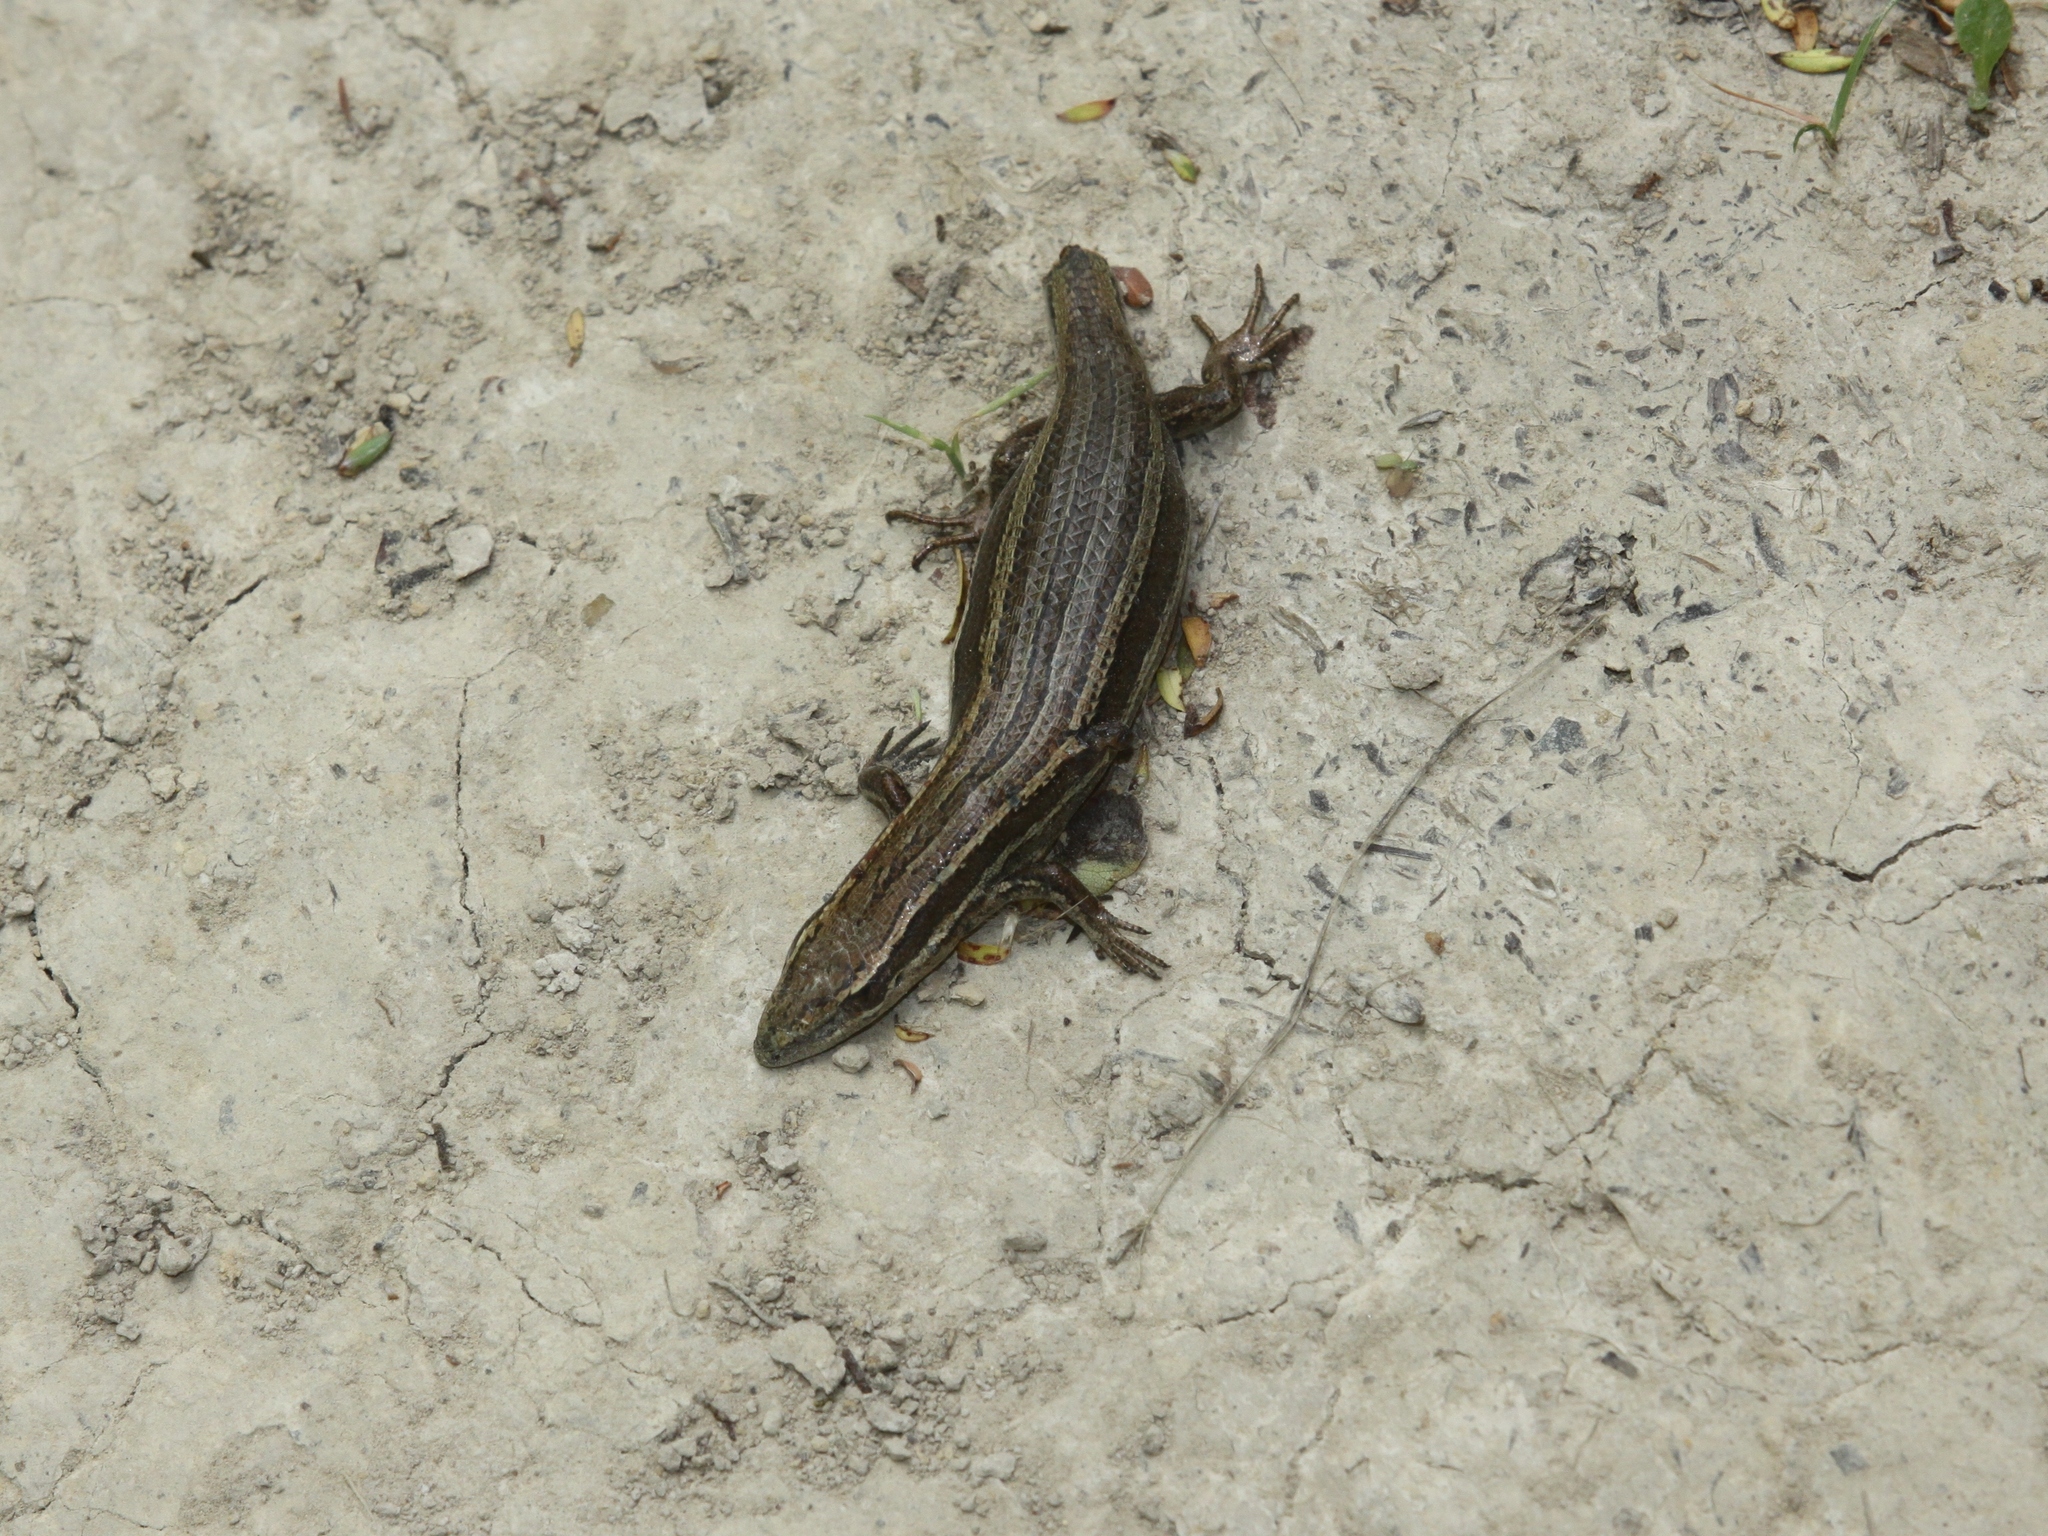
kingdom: Animalia
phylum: Chordata
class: Squamata
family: Scincidae
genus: Oligosoma
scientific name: Oligosoma polychroma
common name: Common new zealand skink
